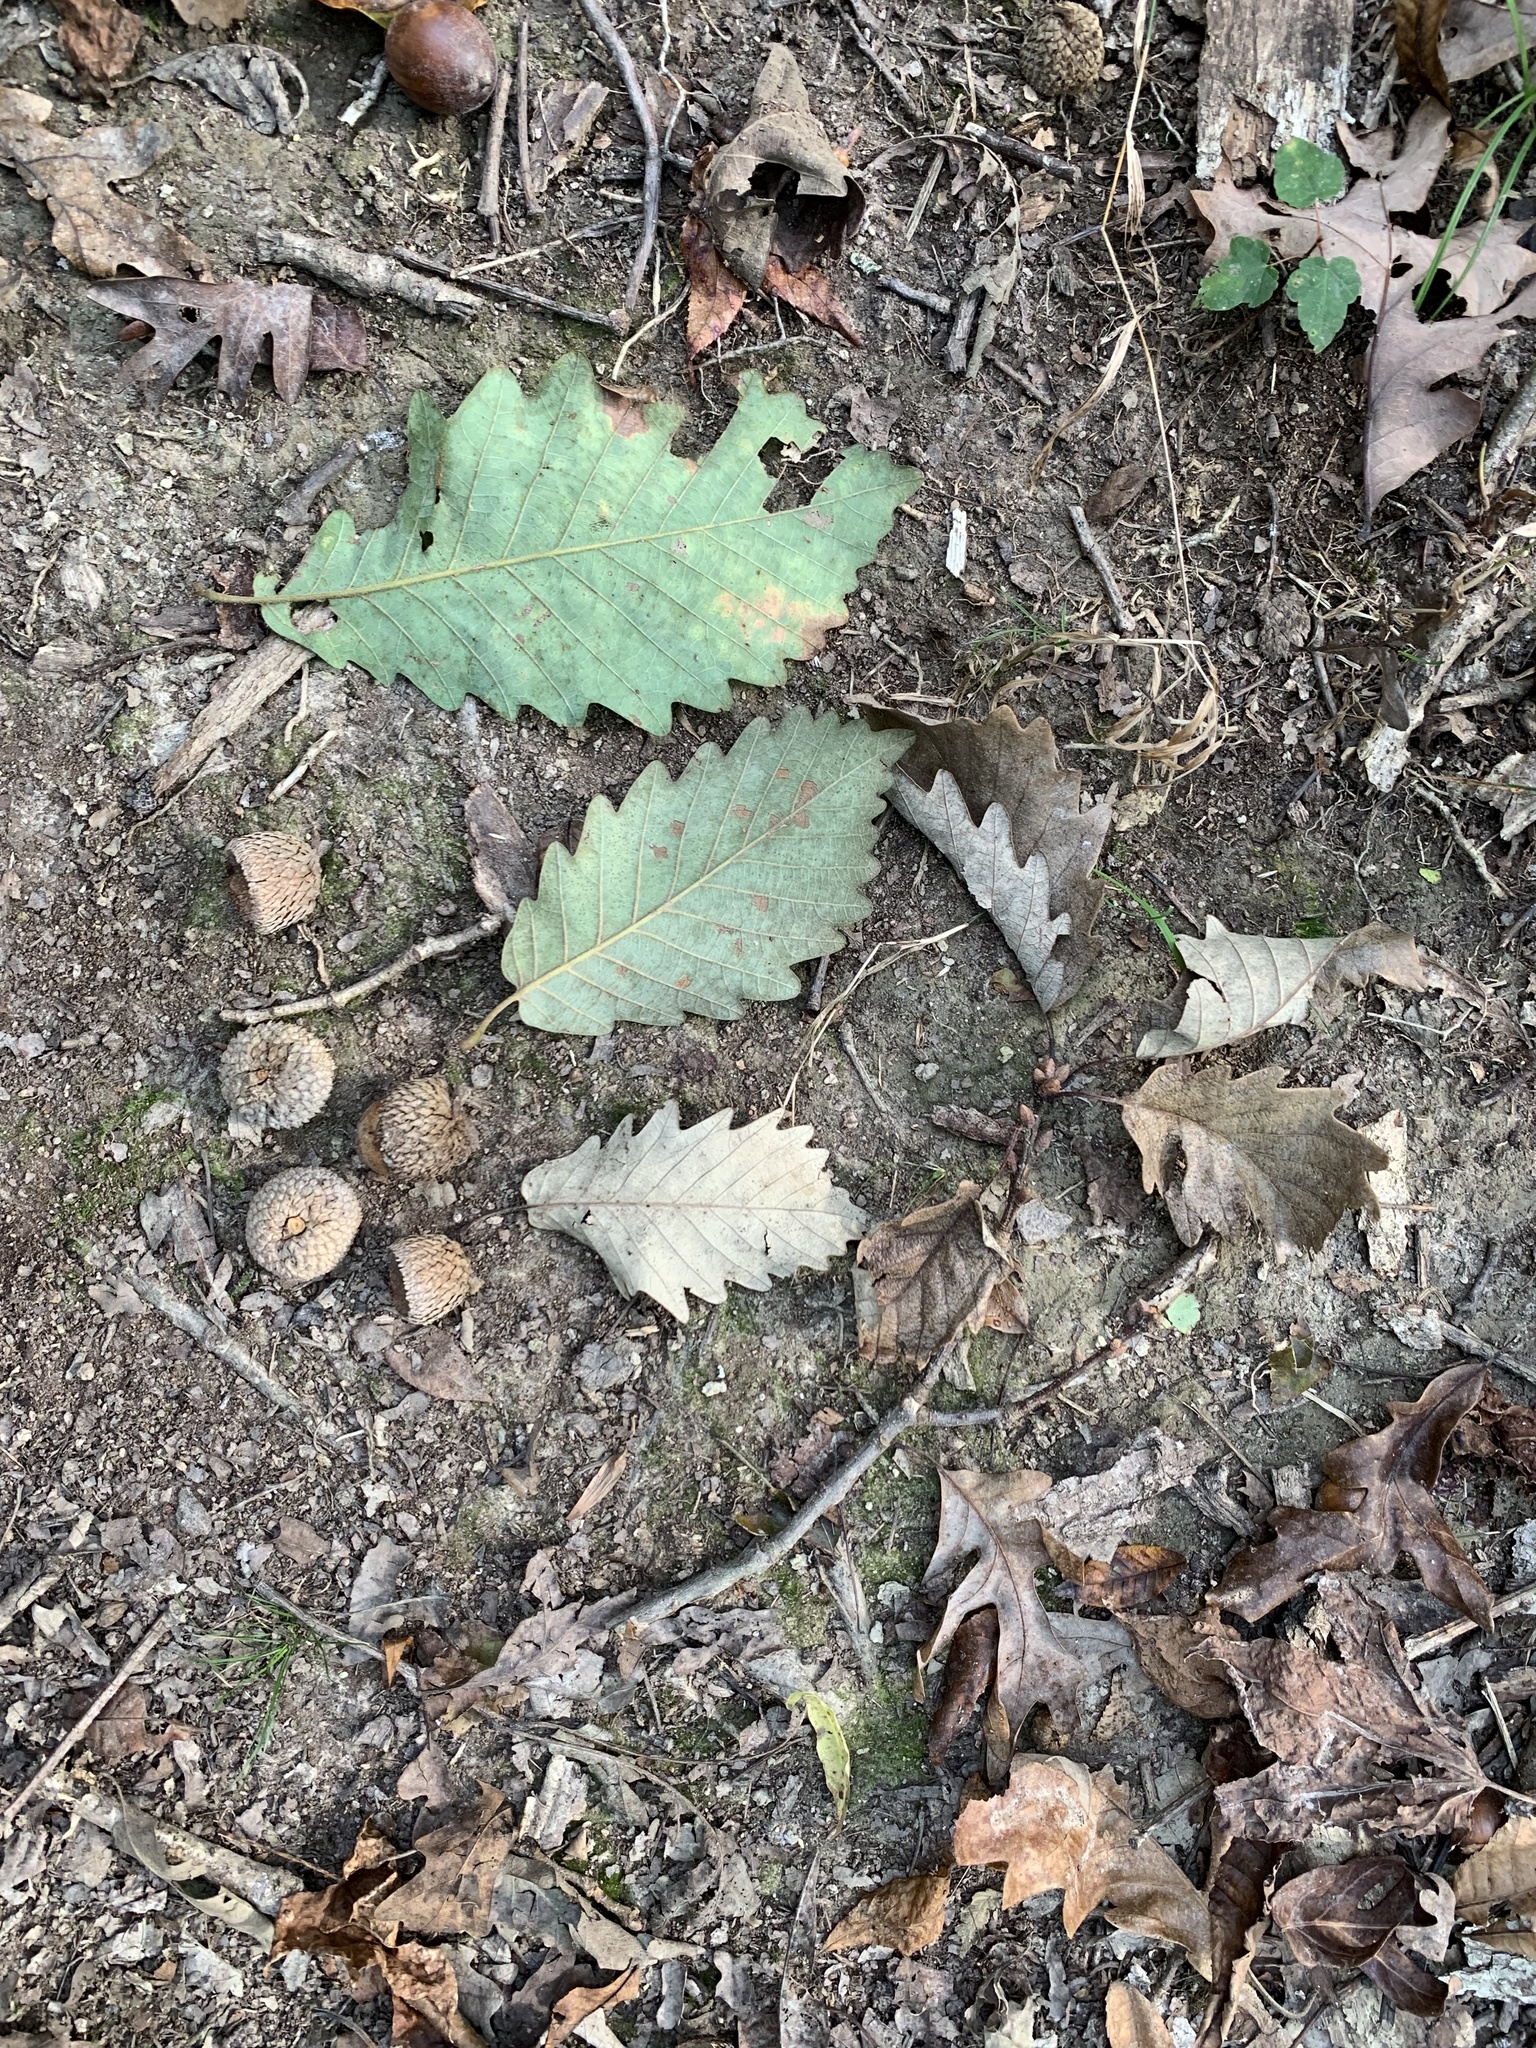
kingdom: Plantae
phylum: Tracheophyta
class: Magnoliopsida
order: Fagales
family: Fagaceae
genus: Quercus
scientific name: Quercus michauxii
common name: Swamp chestnut oak
